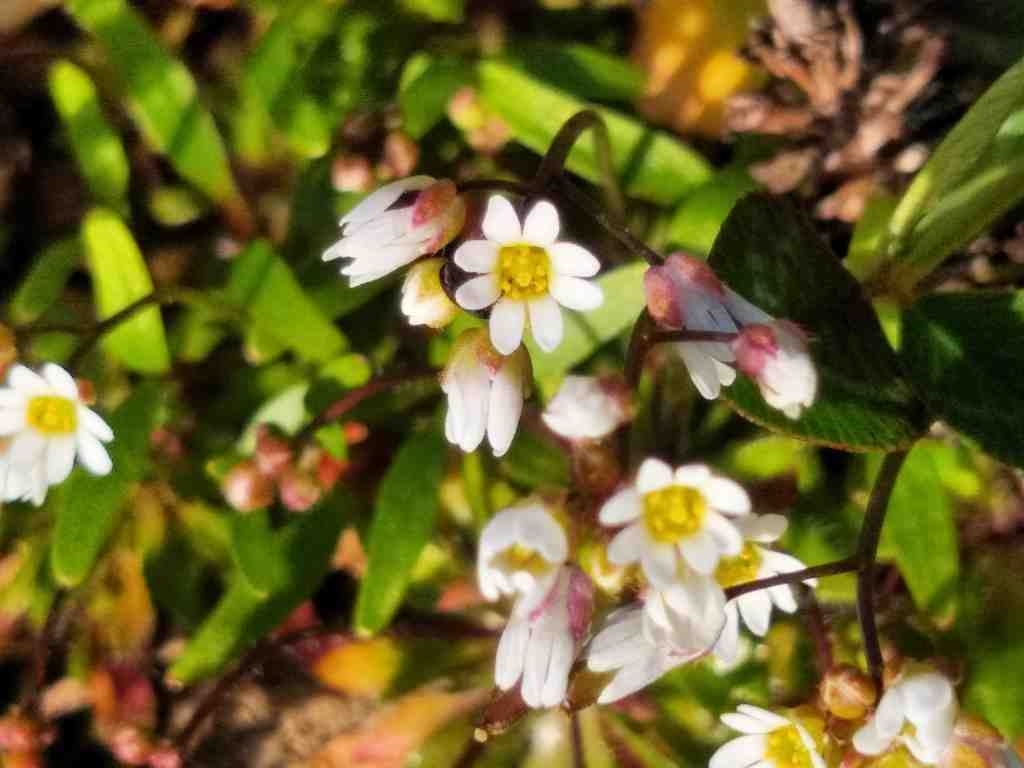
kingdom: Plantae
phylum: Tracheophyta
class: Magnoliopsida
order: Brassicales
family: Brassicaceae
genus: Draba
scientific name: Draba verna
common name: Spring draba
